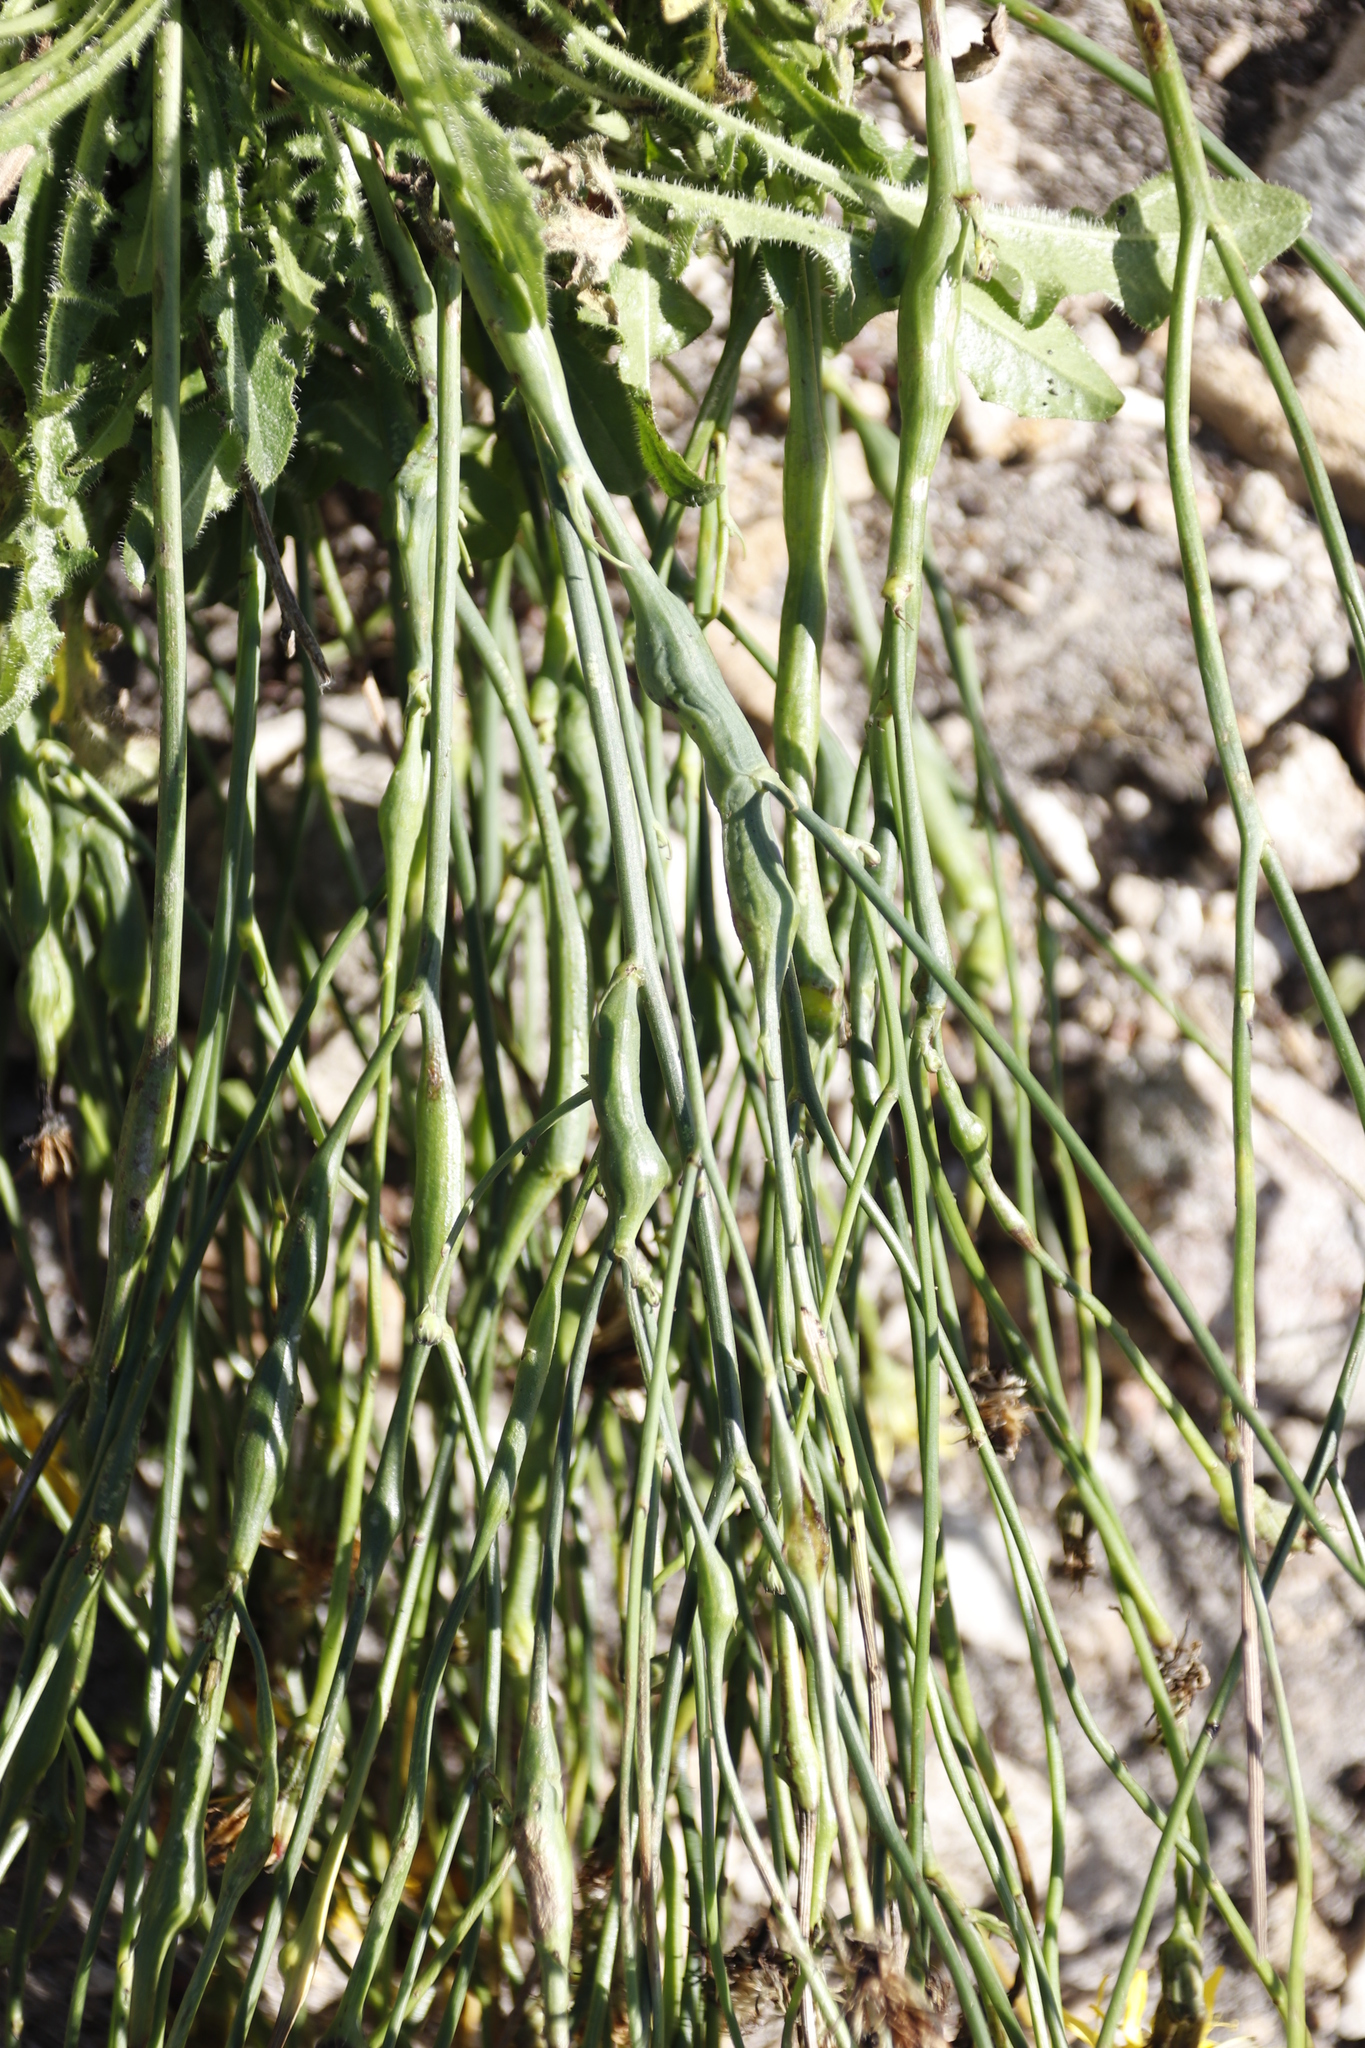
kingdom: Animalia
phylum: Arthropoda
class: Insecta
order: Hymenoptera
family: Cynipidae
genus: Phanacis
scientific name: Phanacis hypochoeridis
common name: Gall wasp
